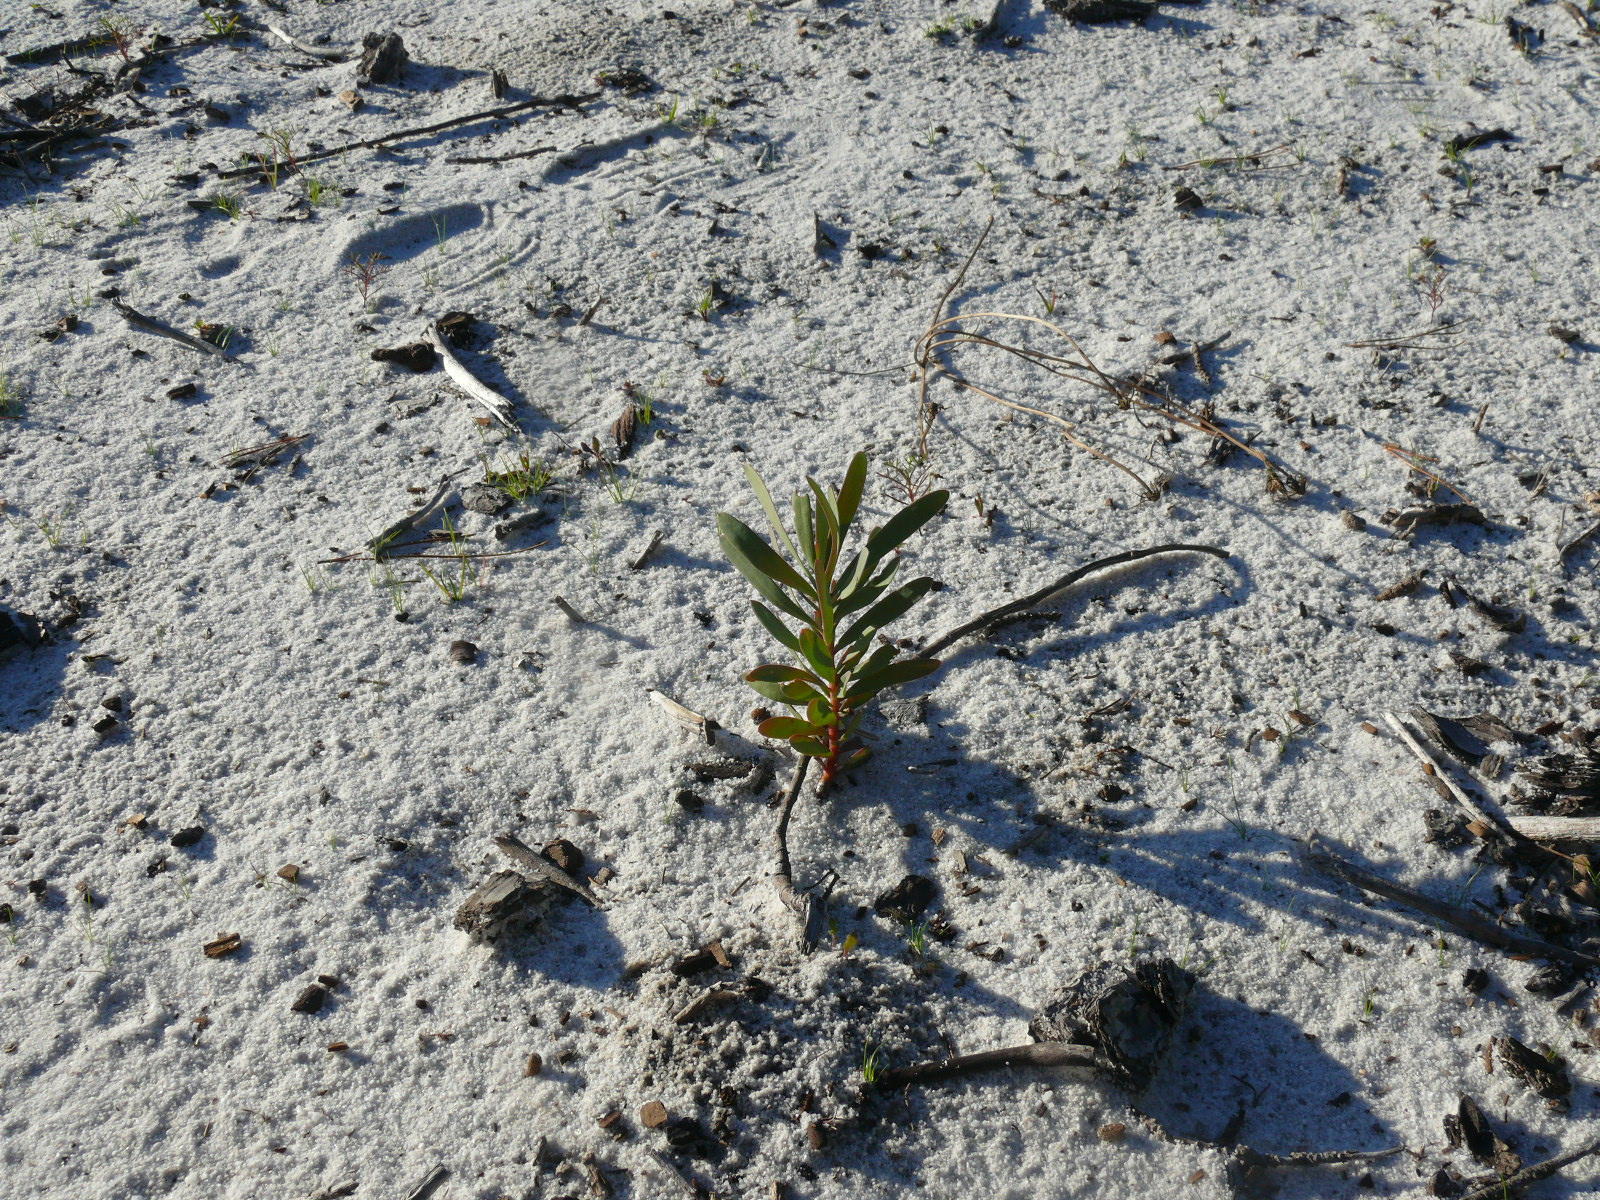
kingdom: Plantae
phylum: Tracheophyta
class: Magnoliopsida
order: Proteales
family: Proteaceae
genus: Protea
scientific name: Protea repens
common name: Sugarbush
